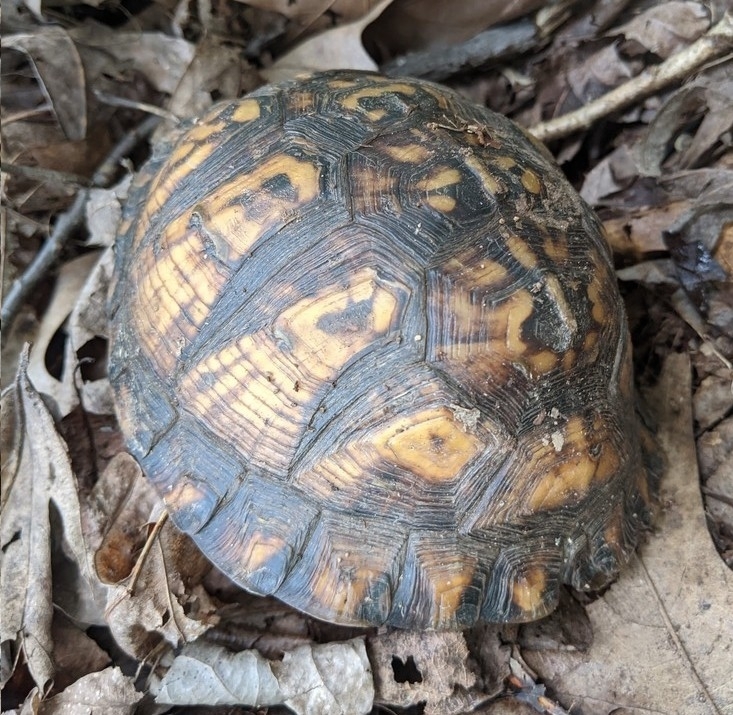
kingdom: Animalia
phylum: Chordata
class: Testudines
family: Emydidae
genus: Terrapene
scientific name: Terrapene carolina
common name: Common box turtle
